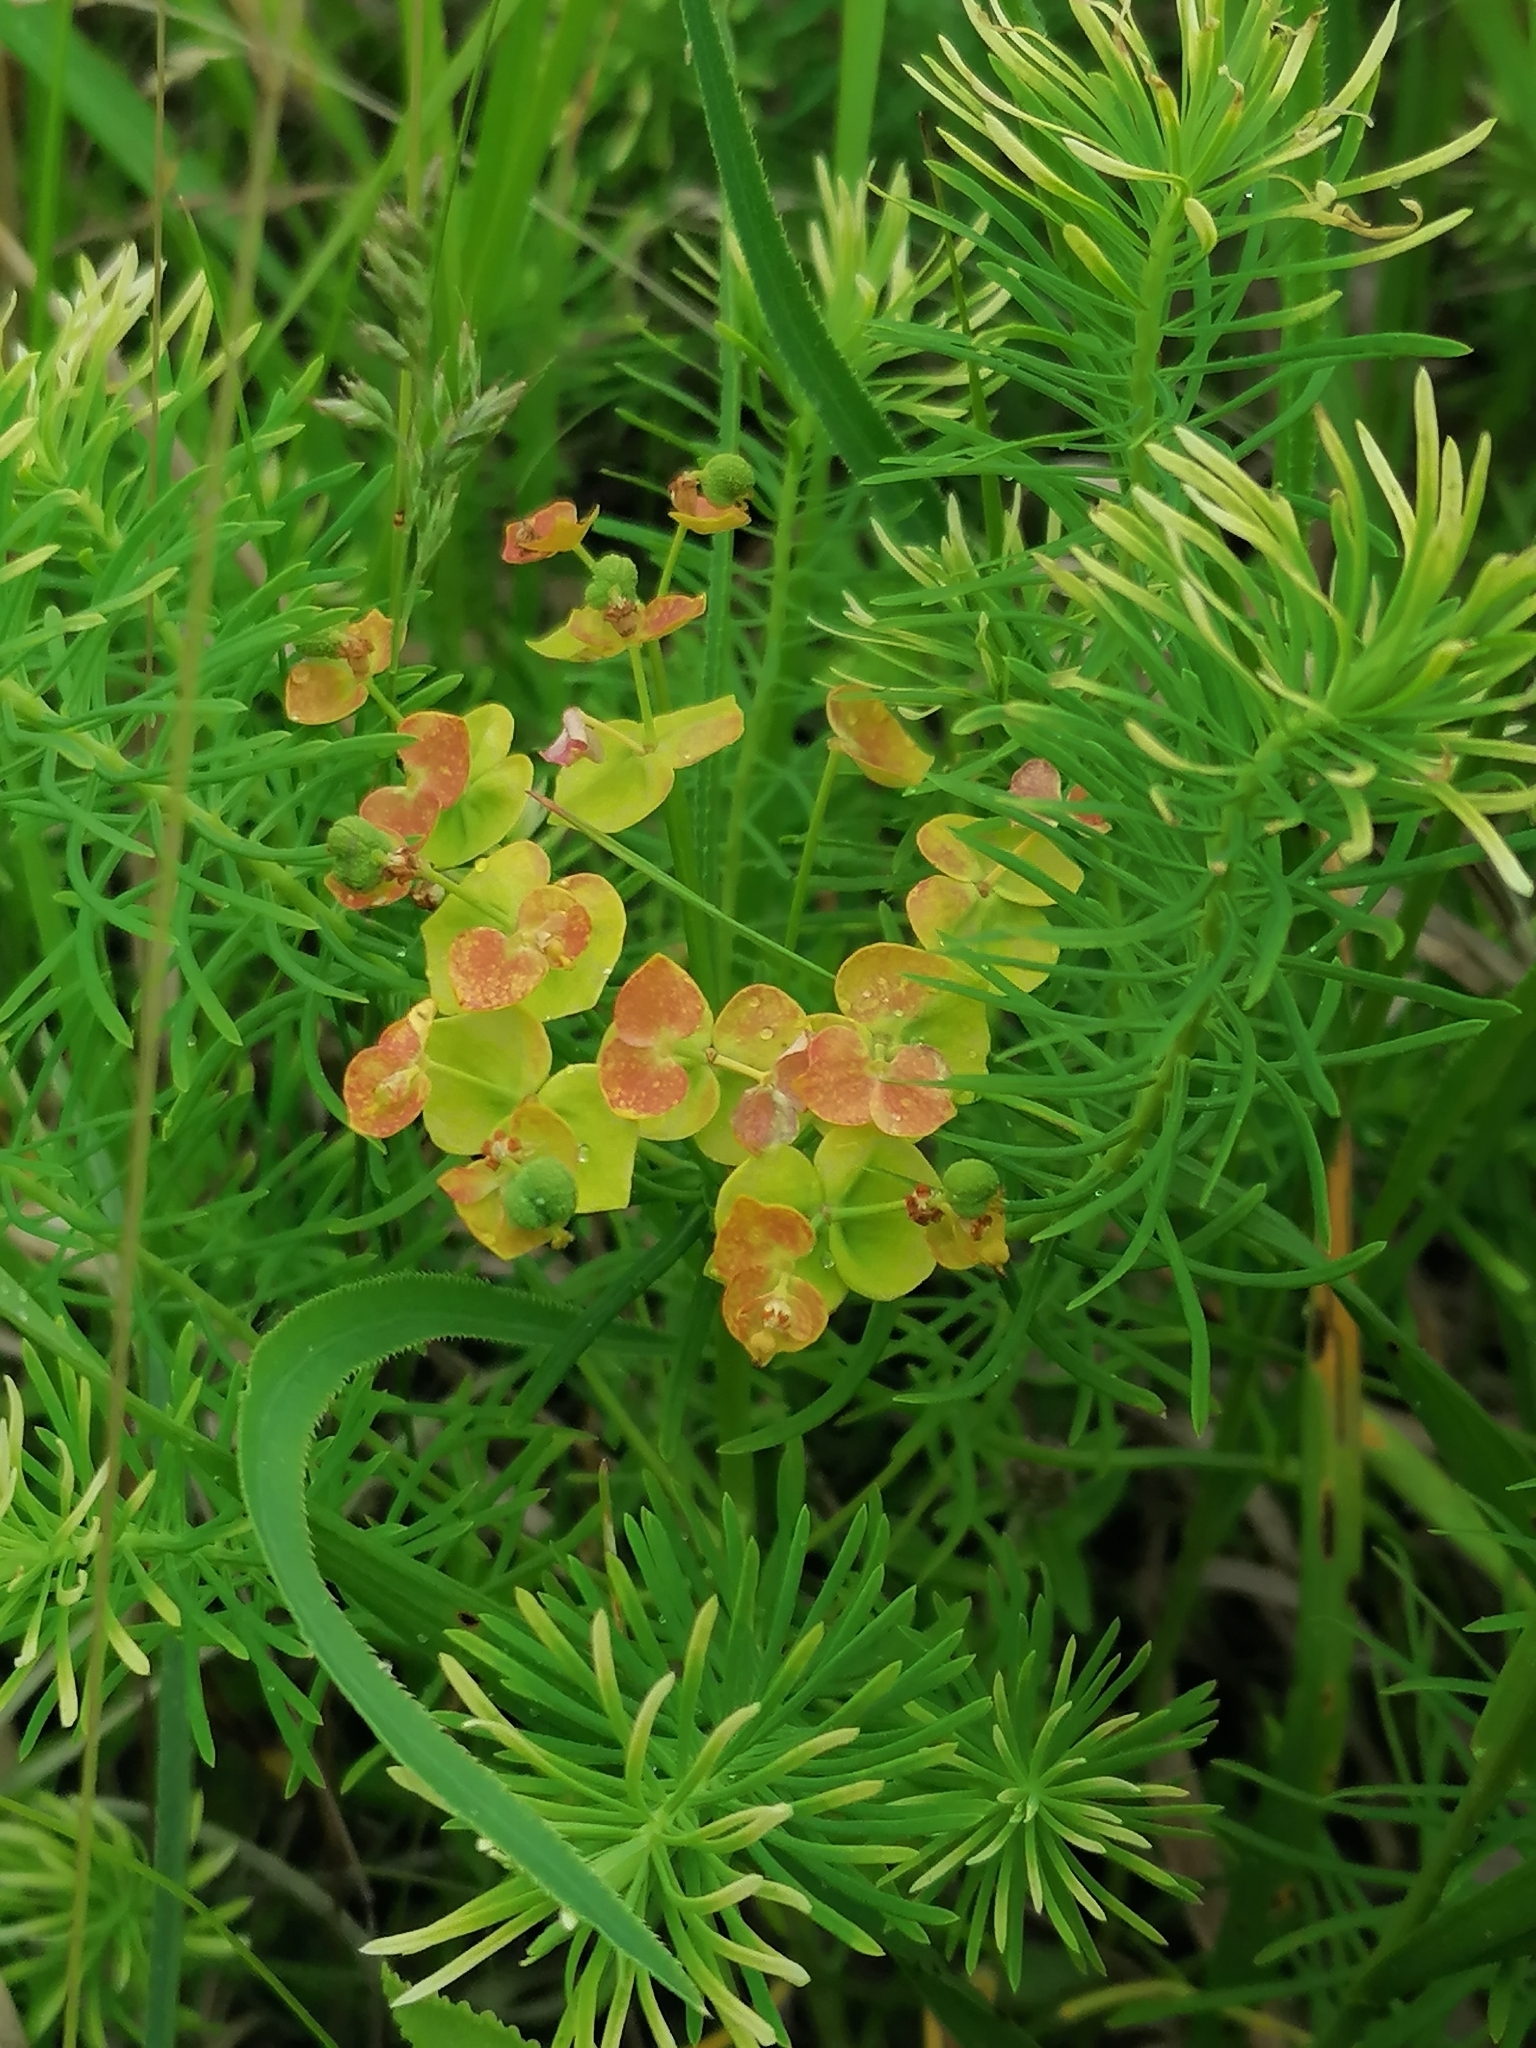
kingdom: Plantae
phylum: Tracheophyta
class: Magnoliopsida
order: Malpighiales
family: Euphorbiaceae
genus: Euphorbia
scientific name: Euphorbia cyparissias
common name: Cypress spurge
